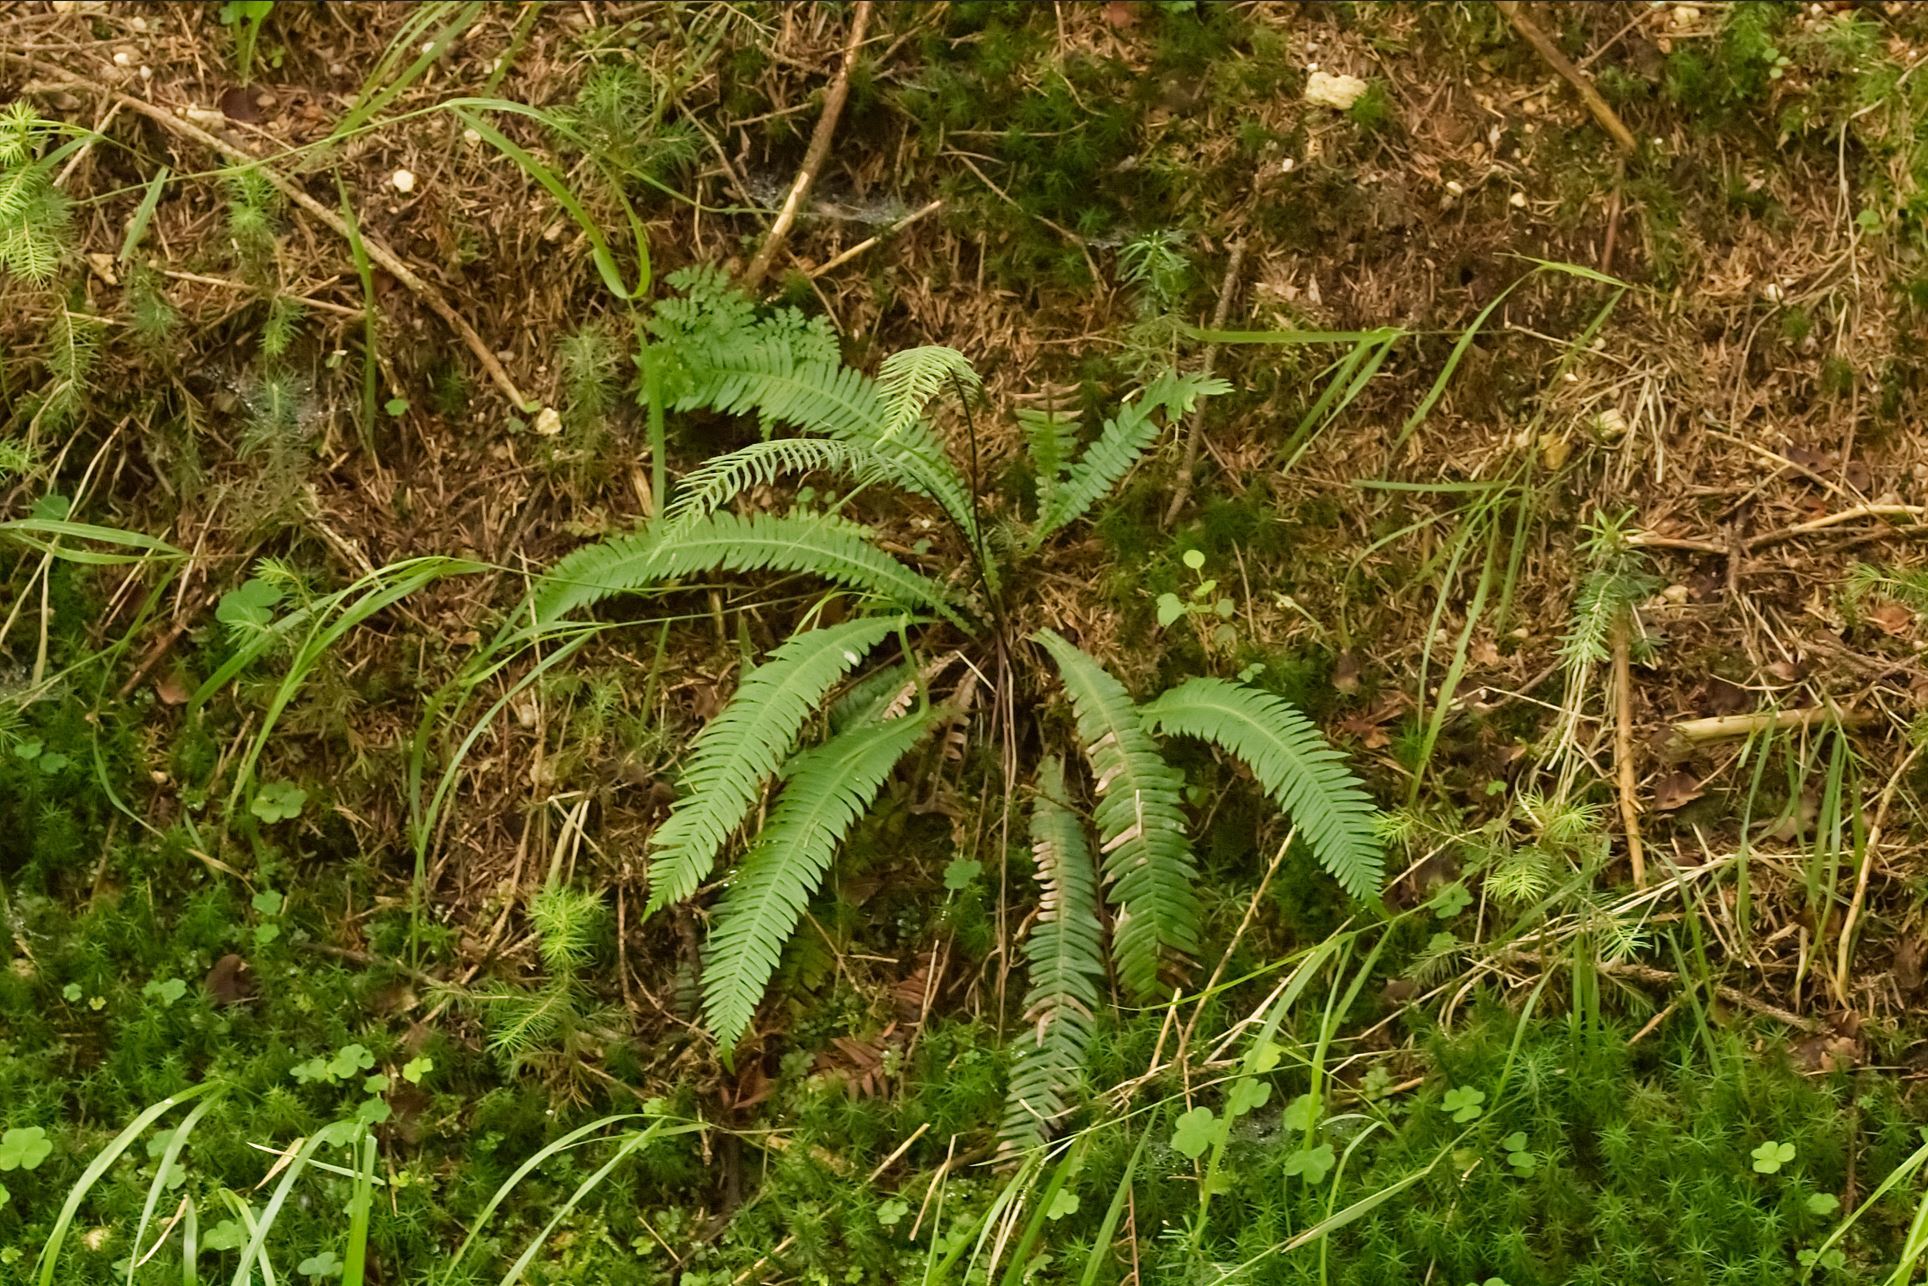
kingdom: Plantae
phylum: Tracheophyta
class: Polypodiopsida
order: Polypodiales
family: Blechnaceae
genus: Struthiopteris
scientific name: Struthiopteris spicant
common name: Deer fern
